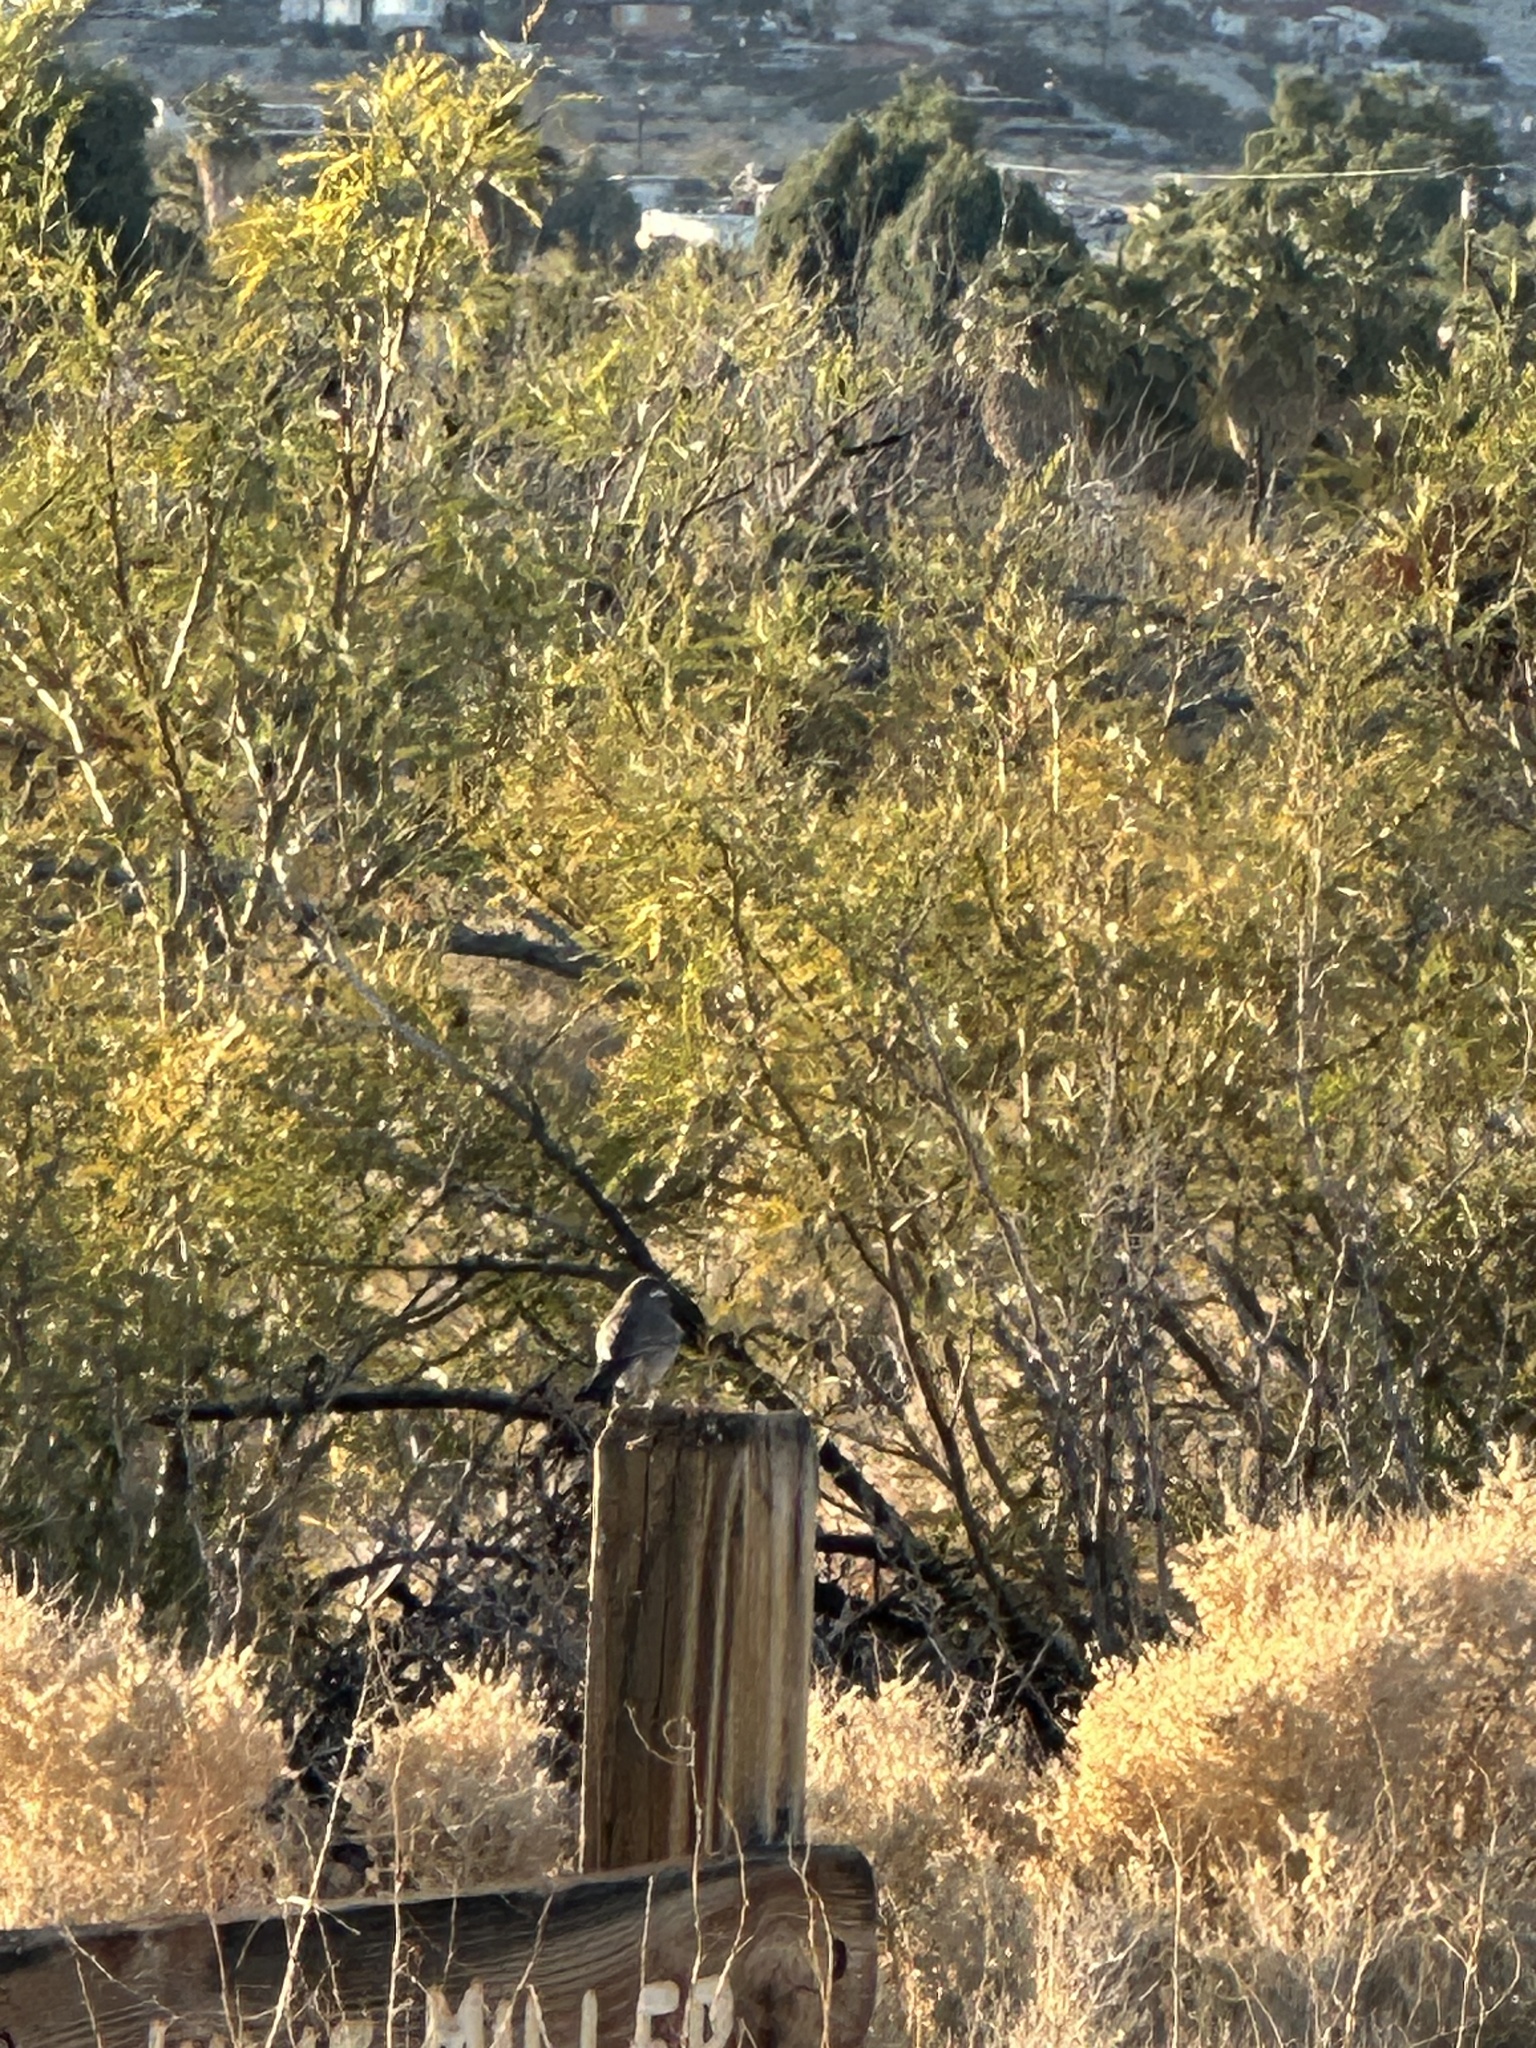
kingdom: Animalia
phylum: Chordata
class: Aves
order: Passeriformes
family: Passerellidae
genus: Amphispiza
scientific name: Amphispiza bilineata
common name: Black-throated sparrow
